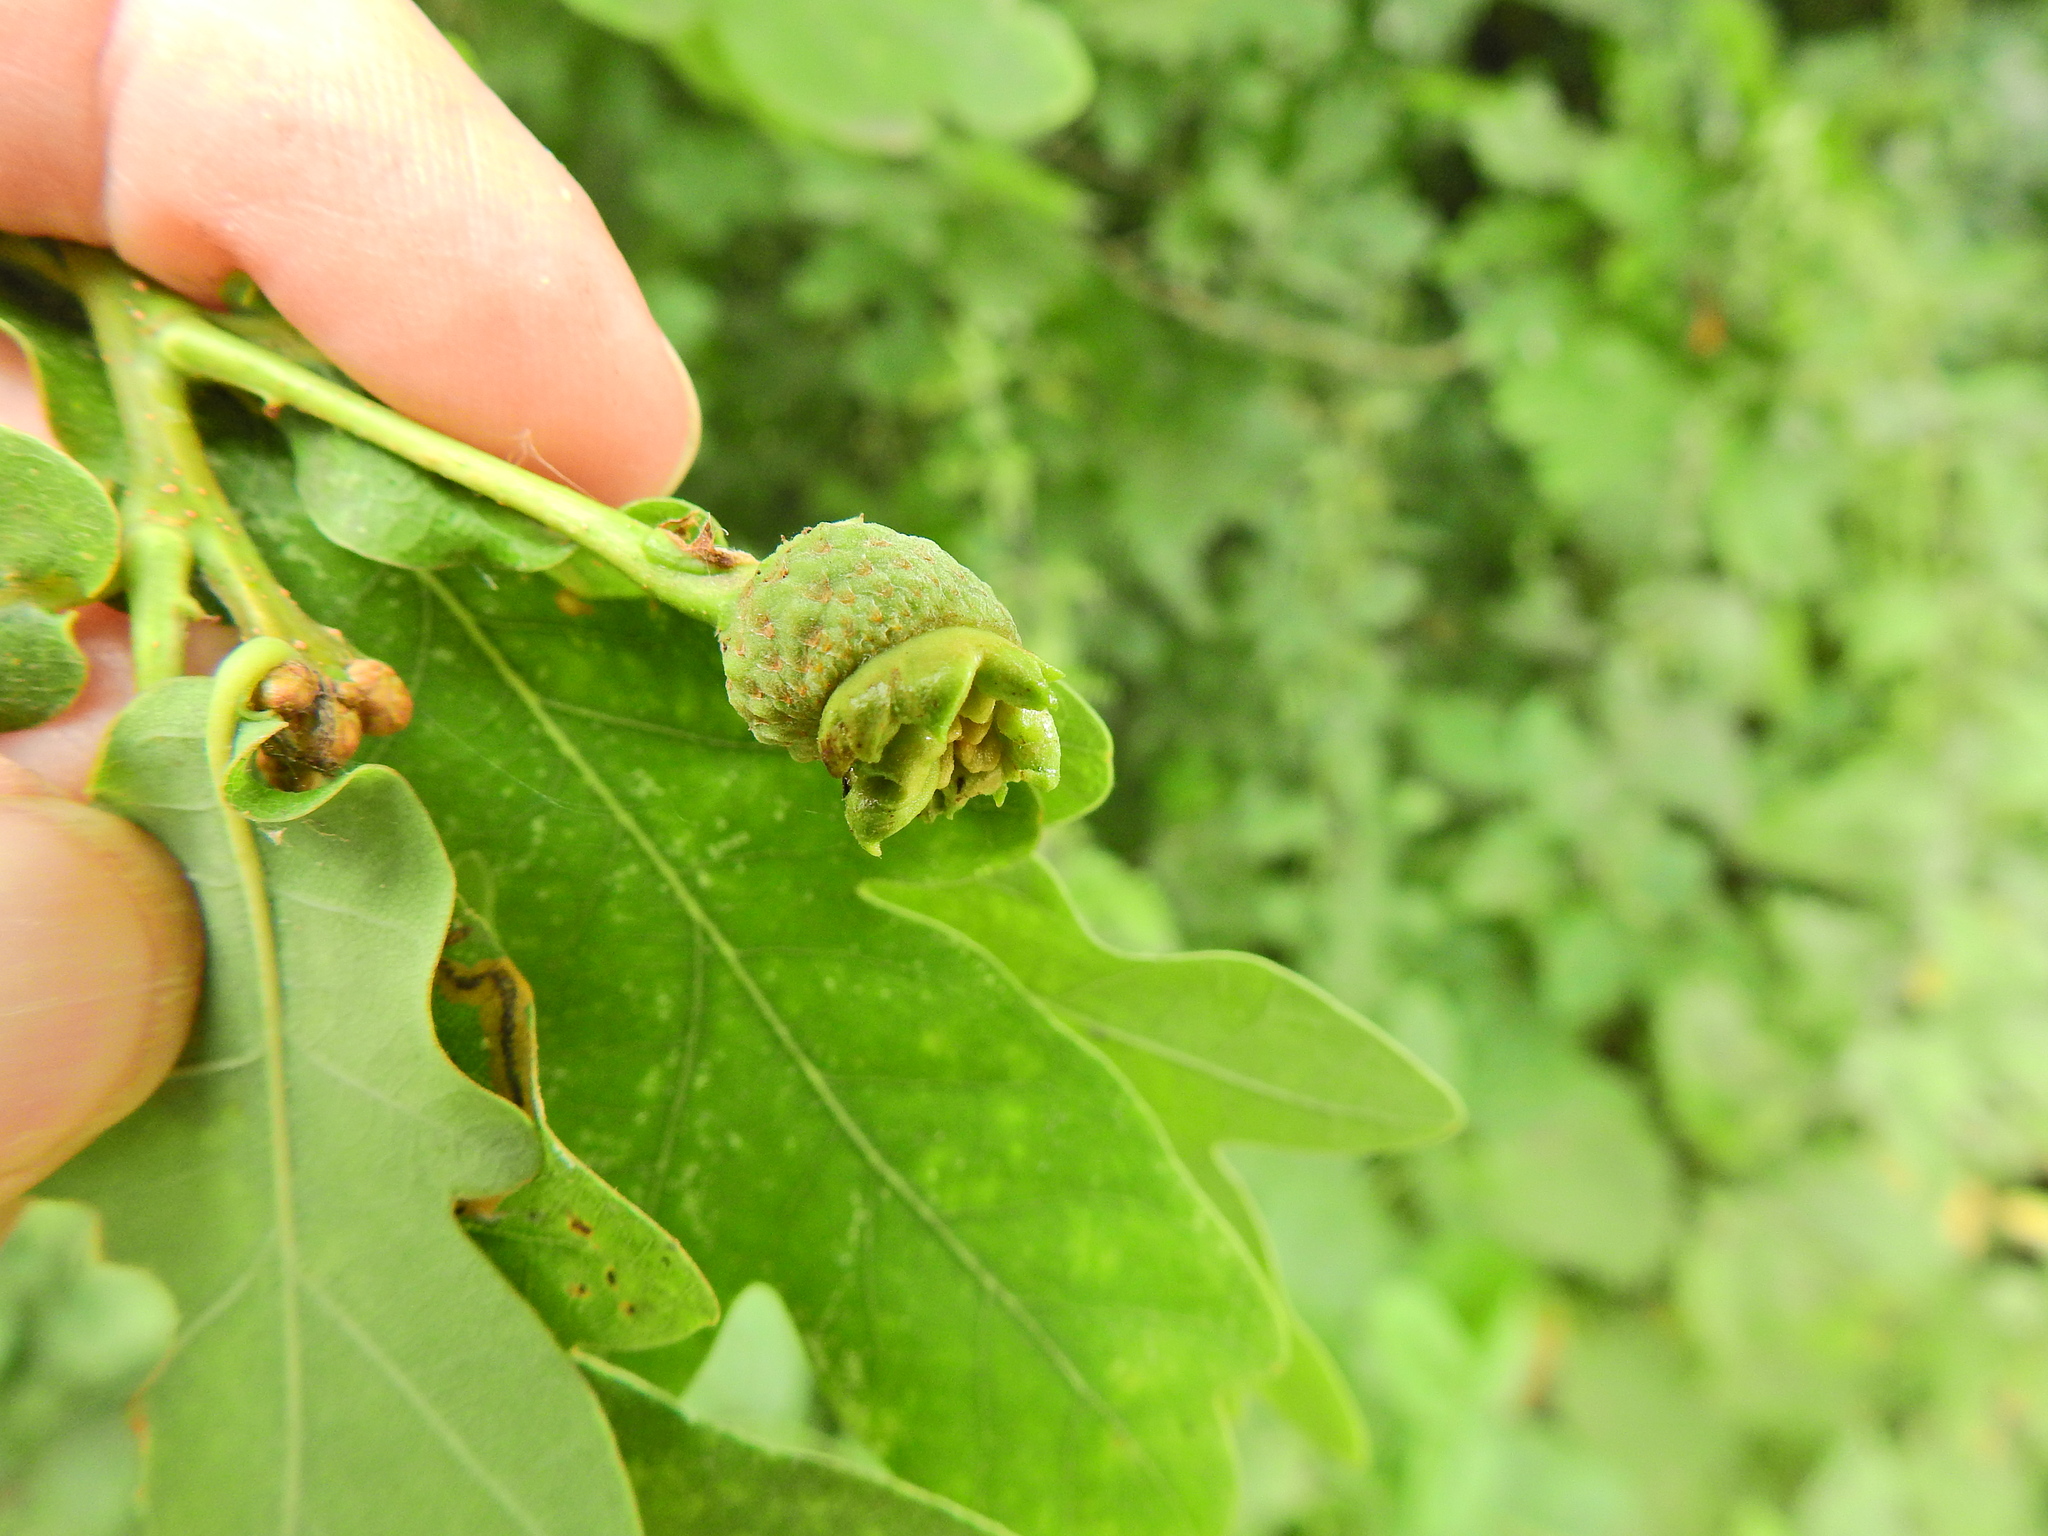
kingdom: Animalia
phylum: Arthropoda
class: Insecta
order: Hymenoptera
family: Cynipidae
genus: Andricus
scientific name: Andricus quercuscalicis
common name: Knopper gall
